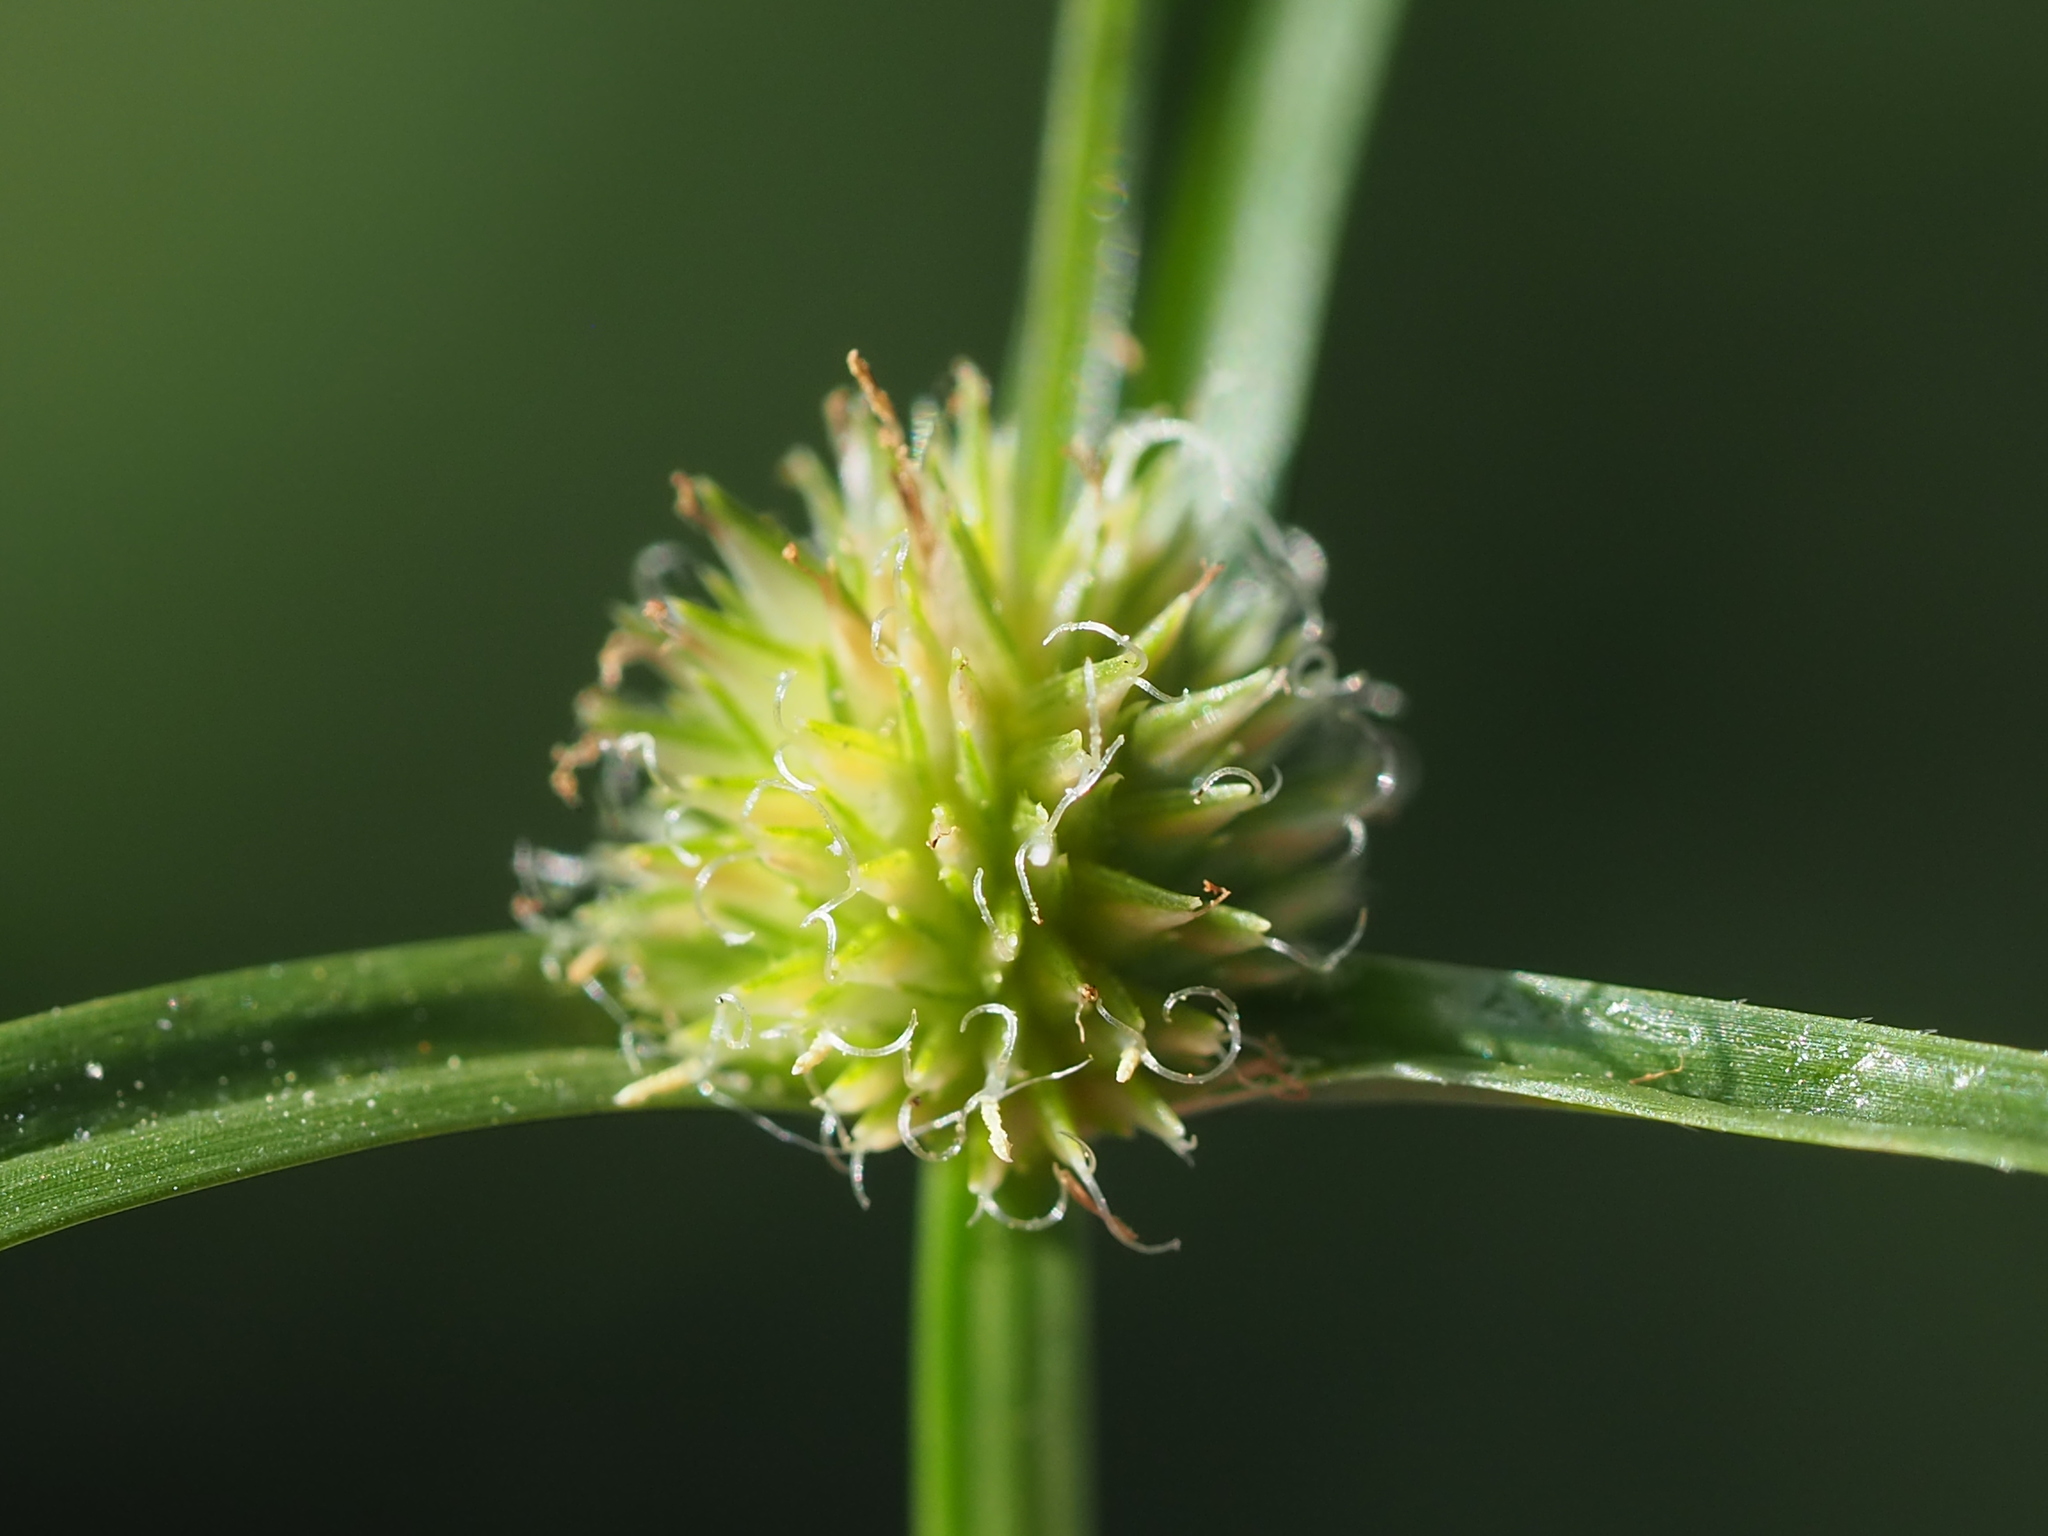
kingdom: Plantae
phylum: Tracheophyta
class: Liliopsida
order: Poales
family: Cyperaceae
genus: Cyperus
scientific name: Cyperus brevifolius
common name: Globe kyllinga
